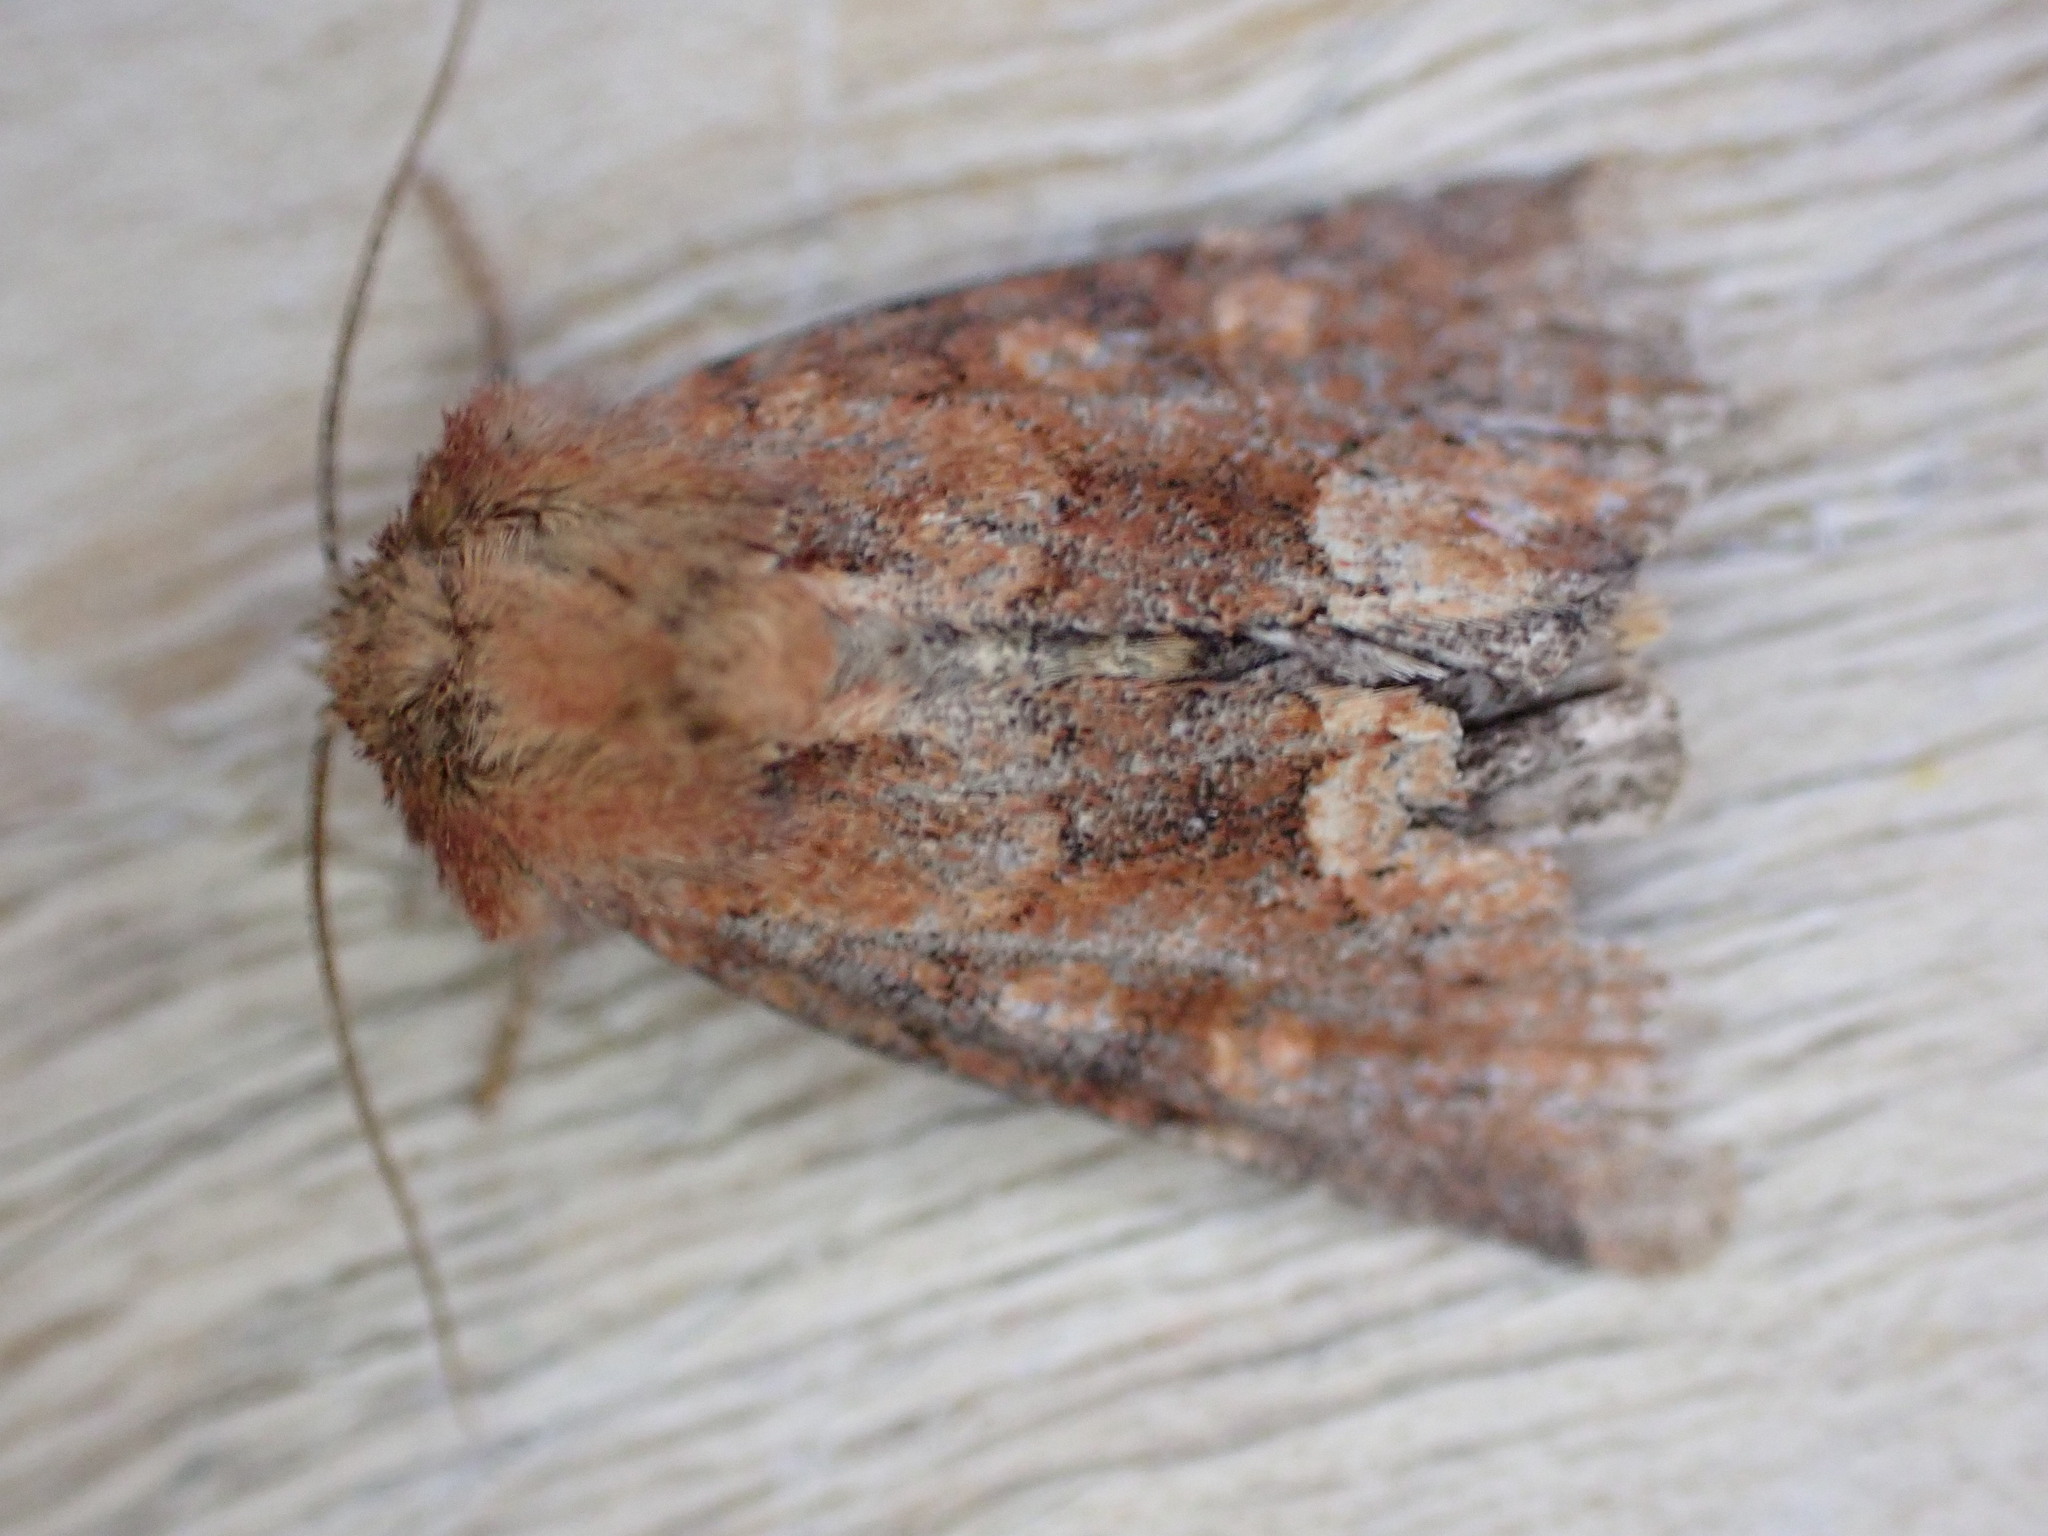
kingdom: Animalia
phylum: Arthropoda
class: Insecta
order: Lepidoptera
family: Noctuidae
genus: Oligia
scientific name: Oligia fasciuncula
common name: Middle-barred minor
